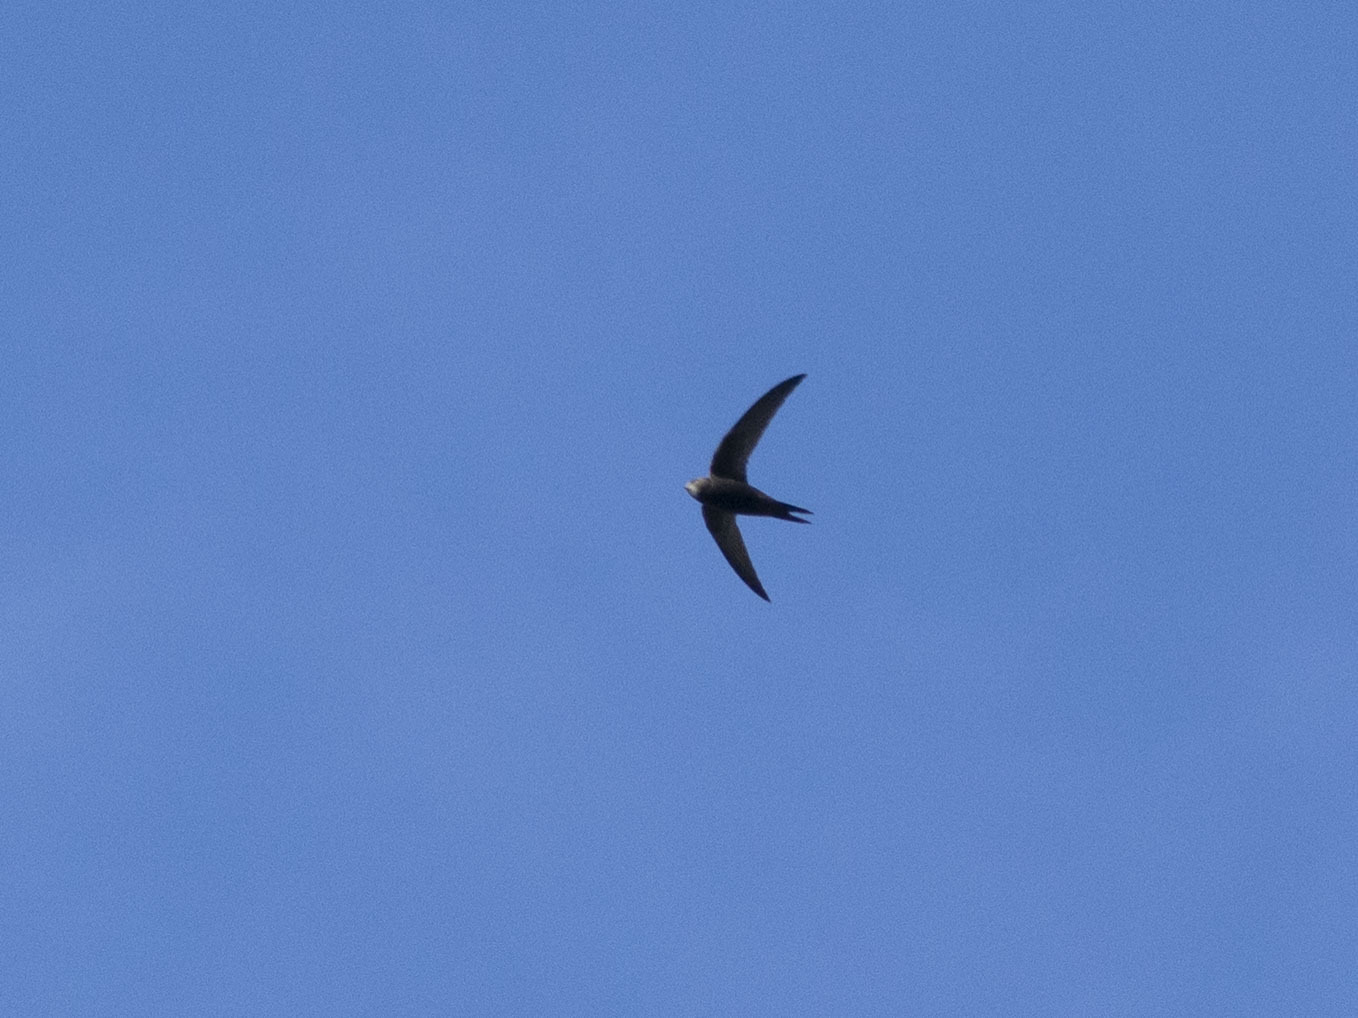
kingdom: Animalia
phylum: Chordata
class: Aves
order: Apodiformes
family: Apodidae
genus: Apus
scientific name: Apus apus
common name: Common swift
